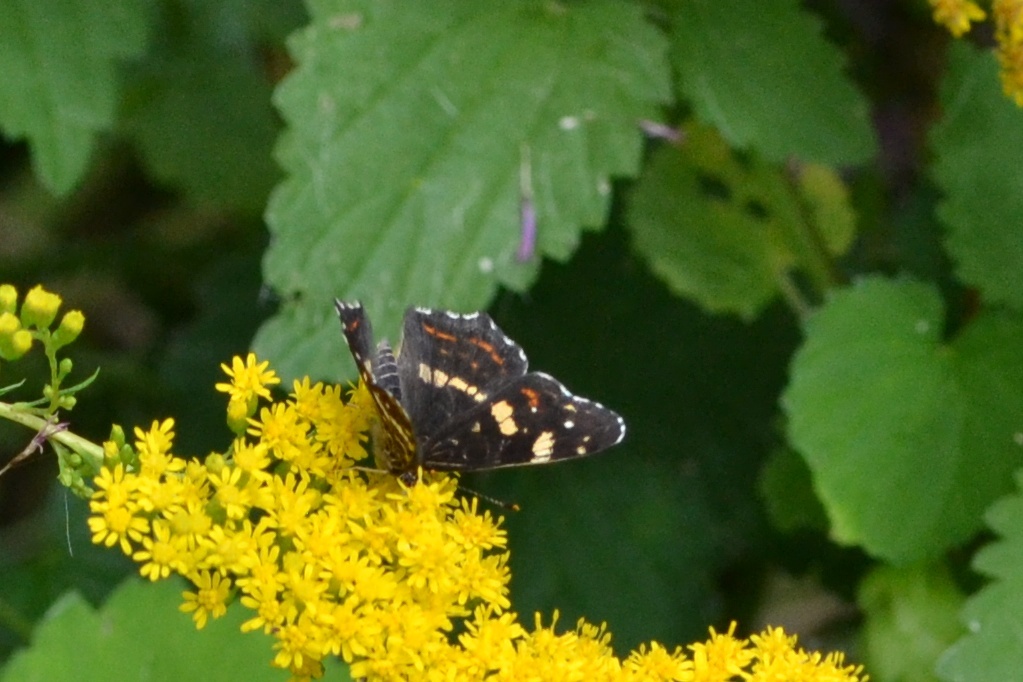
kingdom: Animalia
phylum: Arthropoda
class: Insecta
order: Lepidoptera
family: Nymphalidae
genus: Araschnia
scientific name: Araschnia levana
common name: Map butterfly
